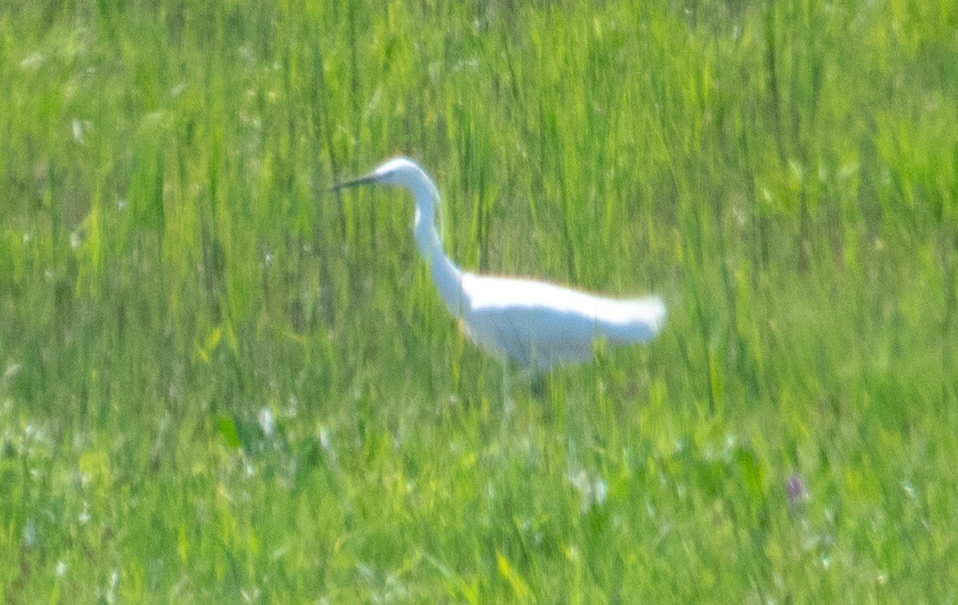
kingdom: Animalia
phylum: Chordata
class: Aves
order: Pelecaniformes
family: Ardeidae
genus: Egretta
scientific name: Egretta garzetta
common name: Little egret
